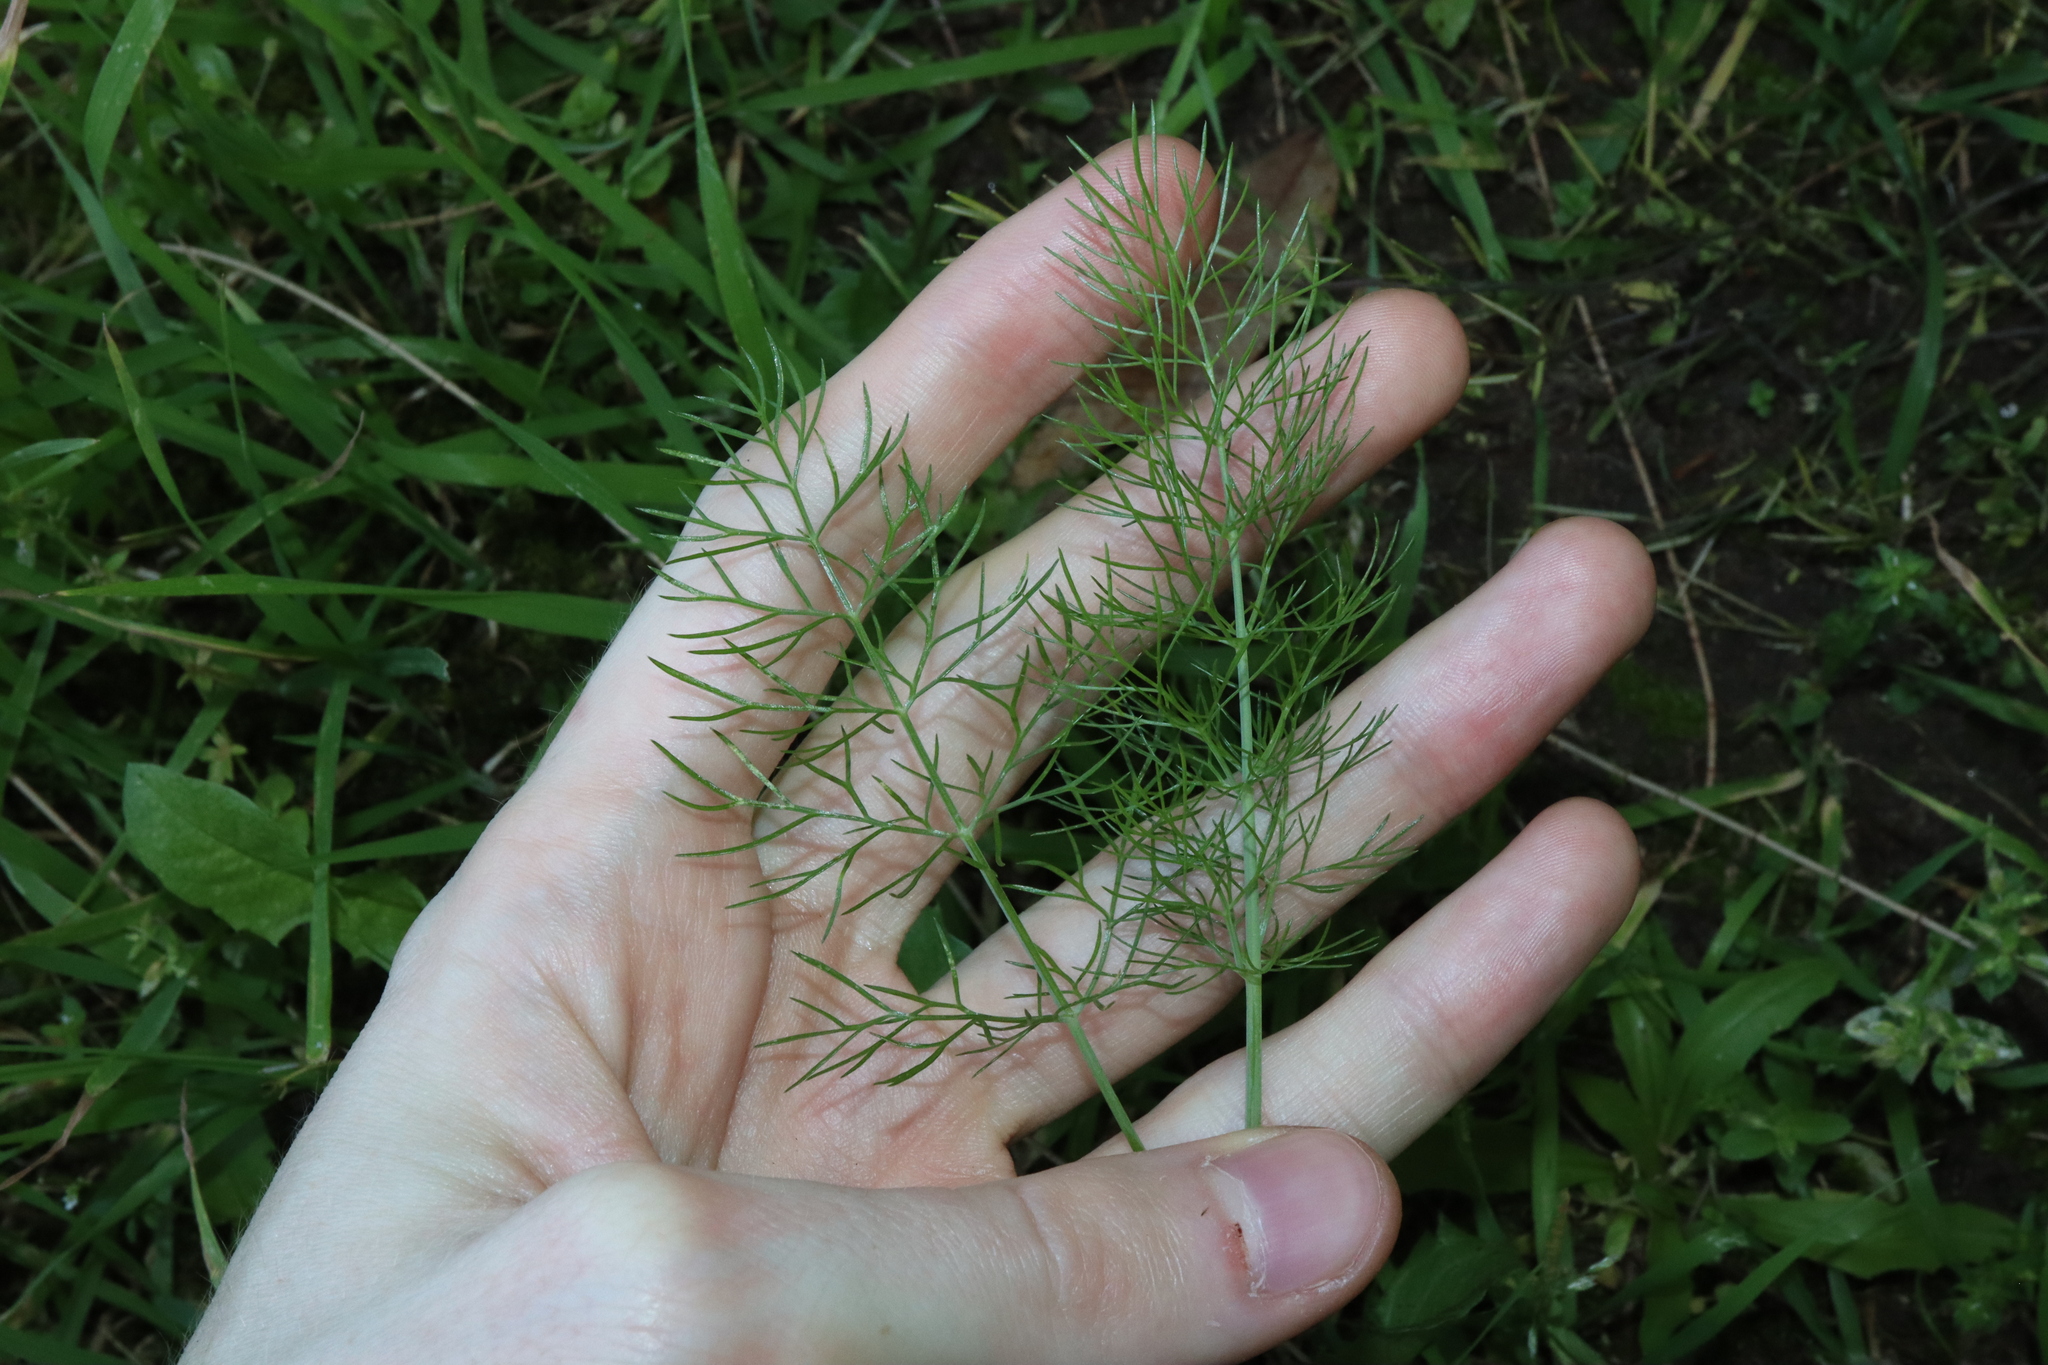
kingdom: Plantae
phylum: Tracheophyta
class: Magnoliopsida
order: Apiales
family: Apiaceae
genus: Foeniculum
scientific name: Foeniculum vulgare
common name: Fennel
